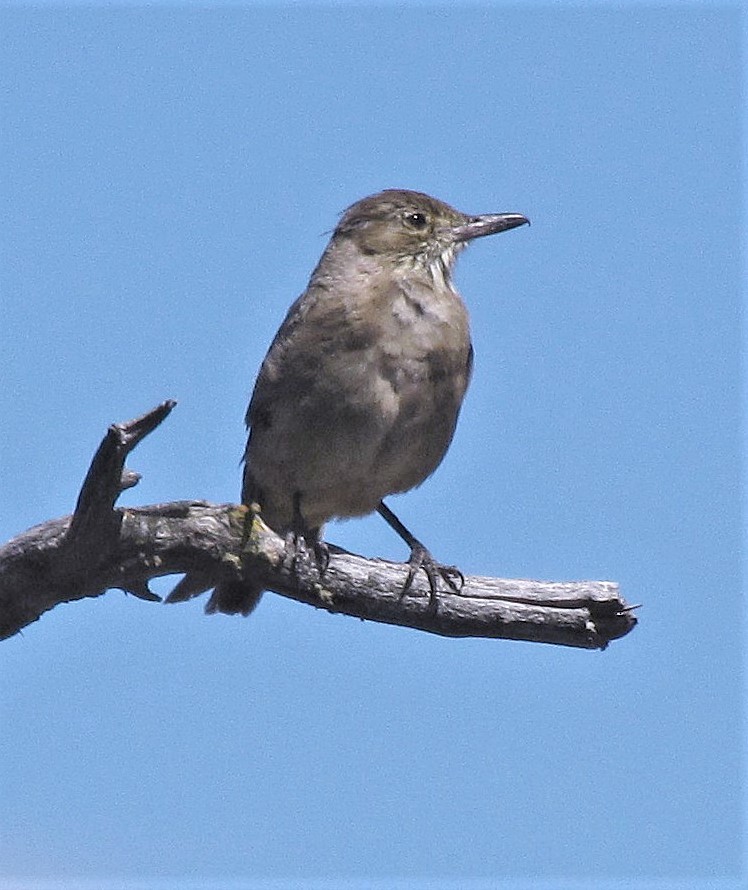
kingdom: Animalia
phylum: Chordata
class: Aves
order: Passeriformes
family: Tyrannidae
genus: Agriornis
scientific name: Agriornis lividus
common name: Great shrike-tyrant
